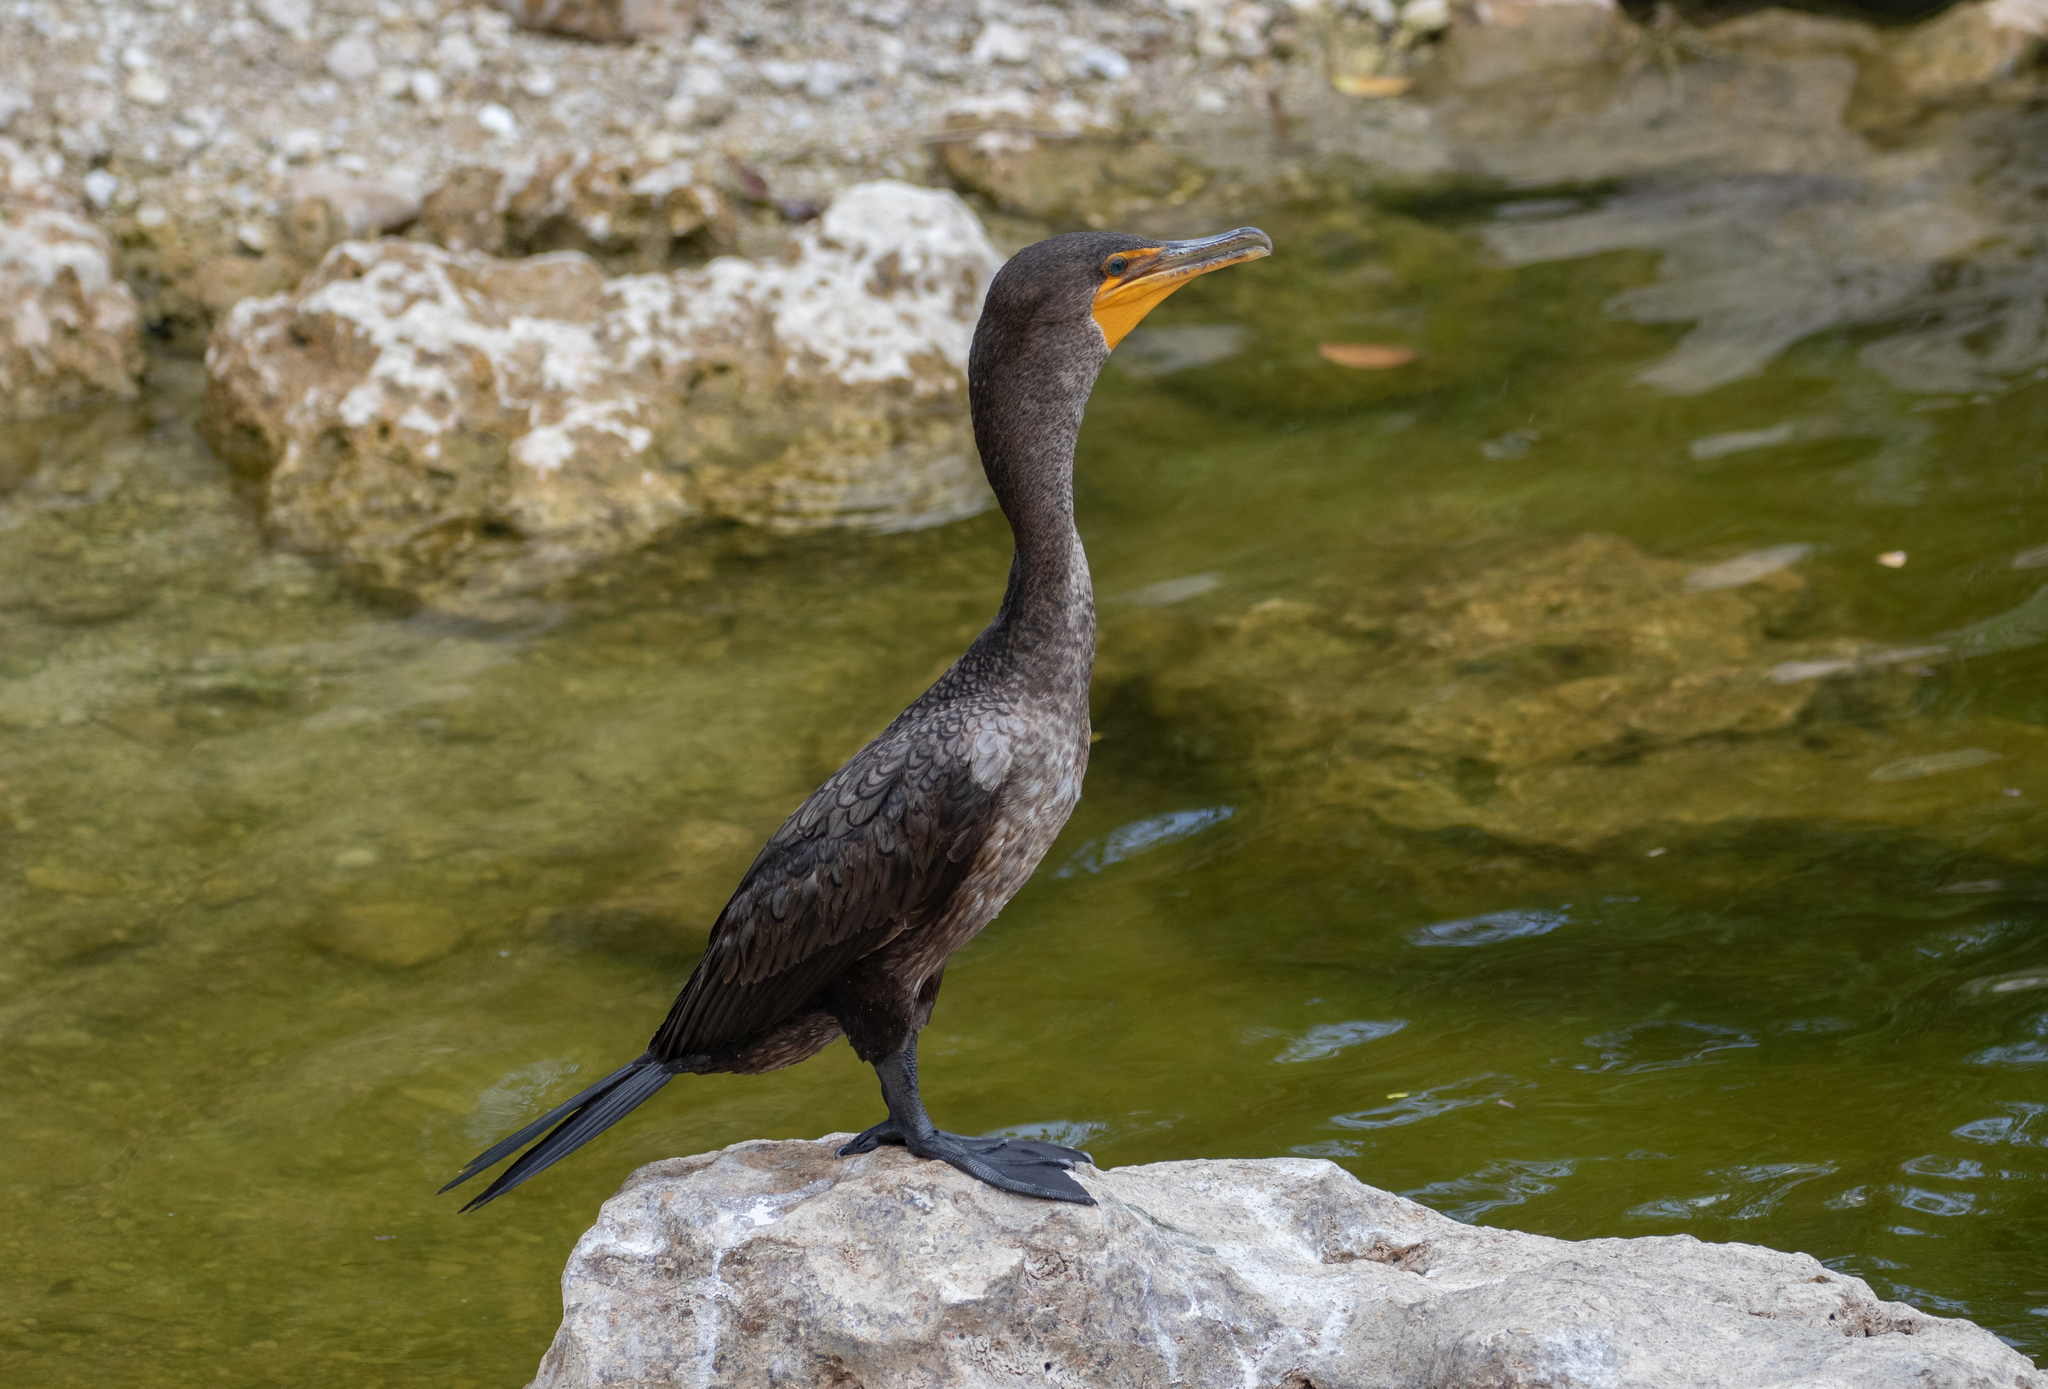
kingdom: Animalia
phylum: Chordata
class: Aves
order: Suliformes
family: Phalacrocoracidae
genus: Phalacrocorax
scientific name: Phalacrocorax auritus
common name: Double-crested cormorant
